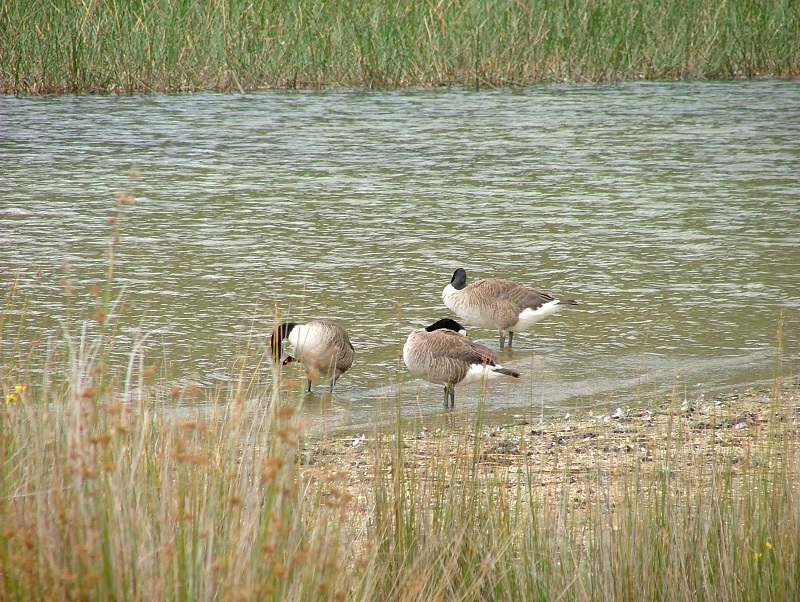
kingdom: Animalia
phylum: Chordata
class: Aves
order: Anseriformes
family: Anatidae
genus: Branta
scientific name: Branta canadensis
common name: Canada goose
